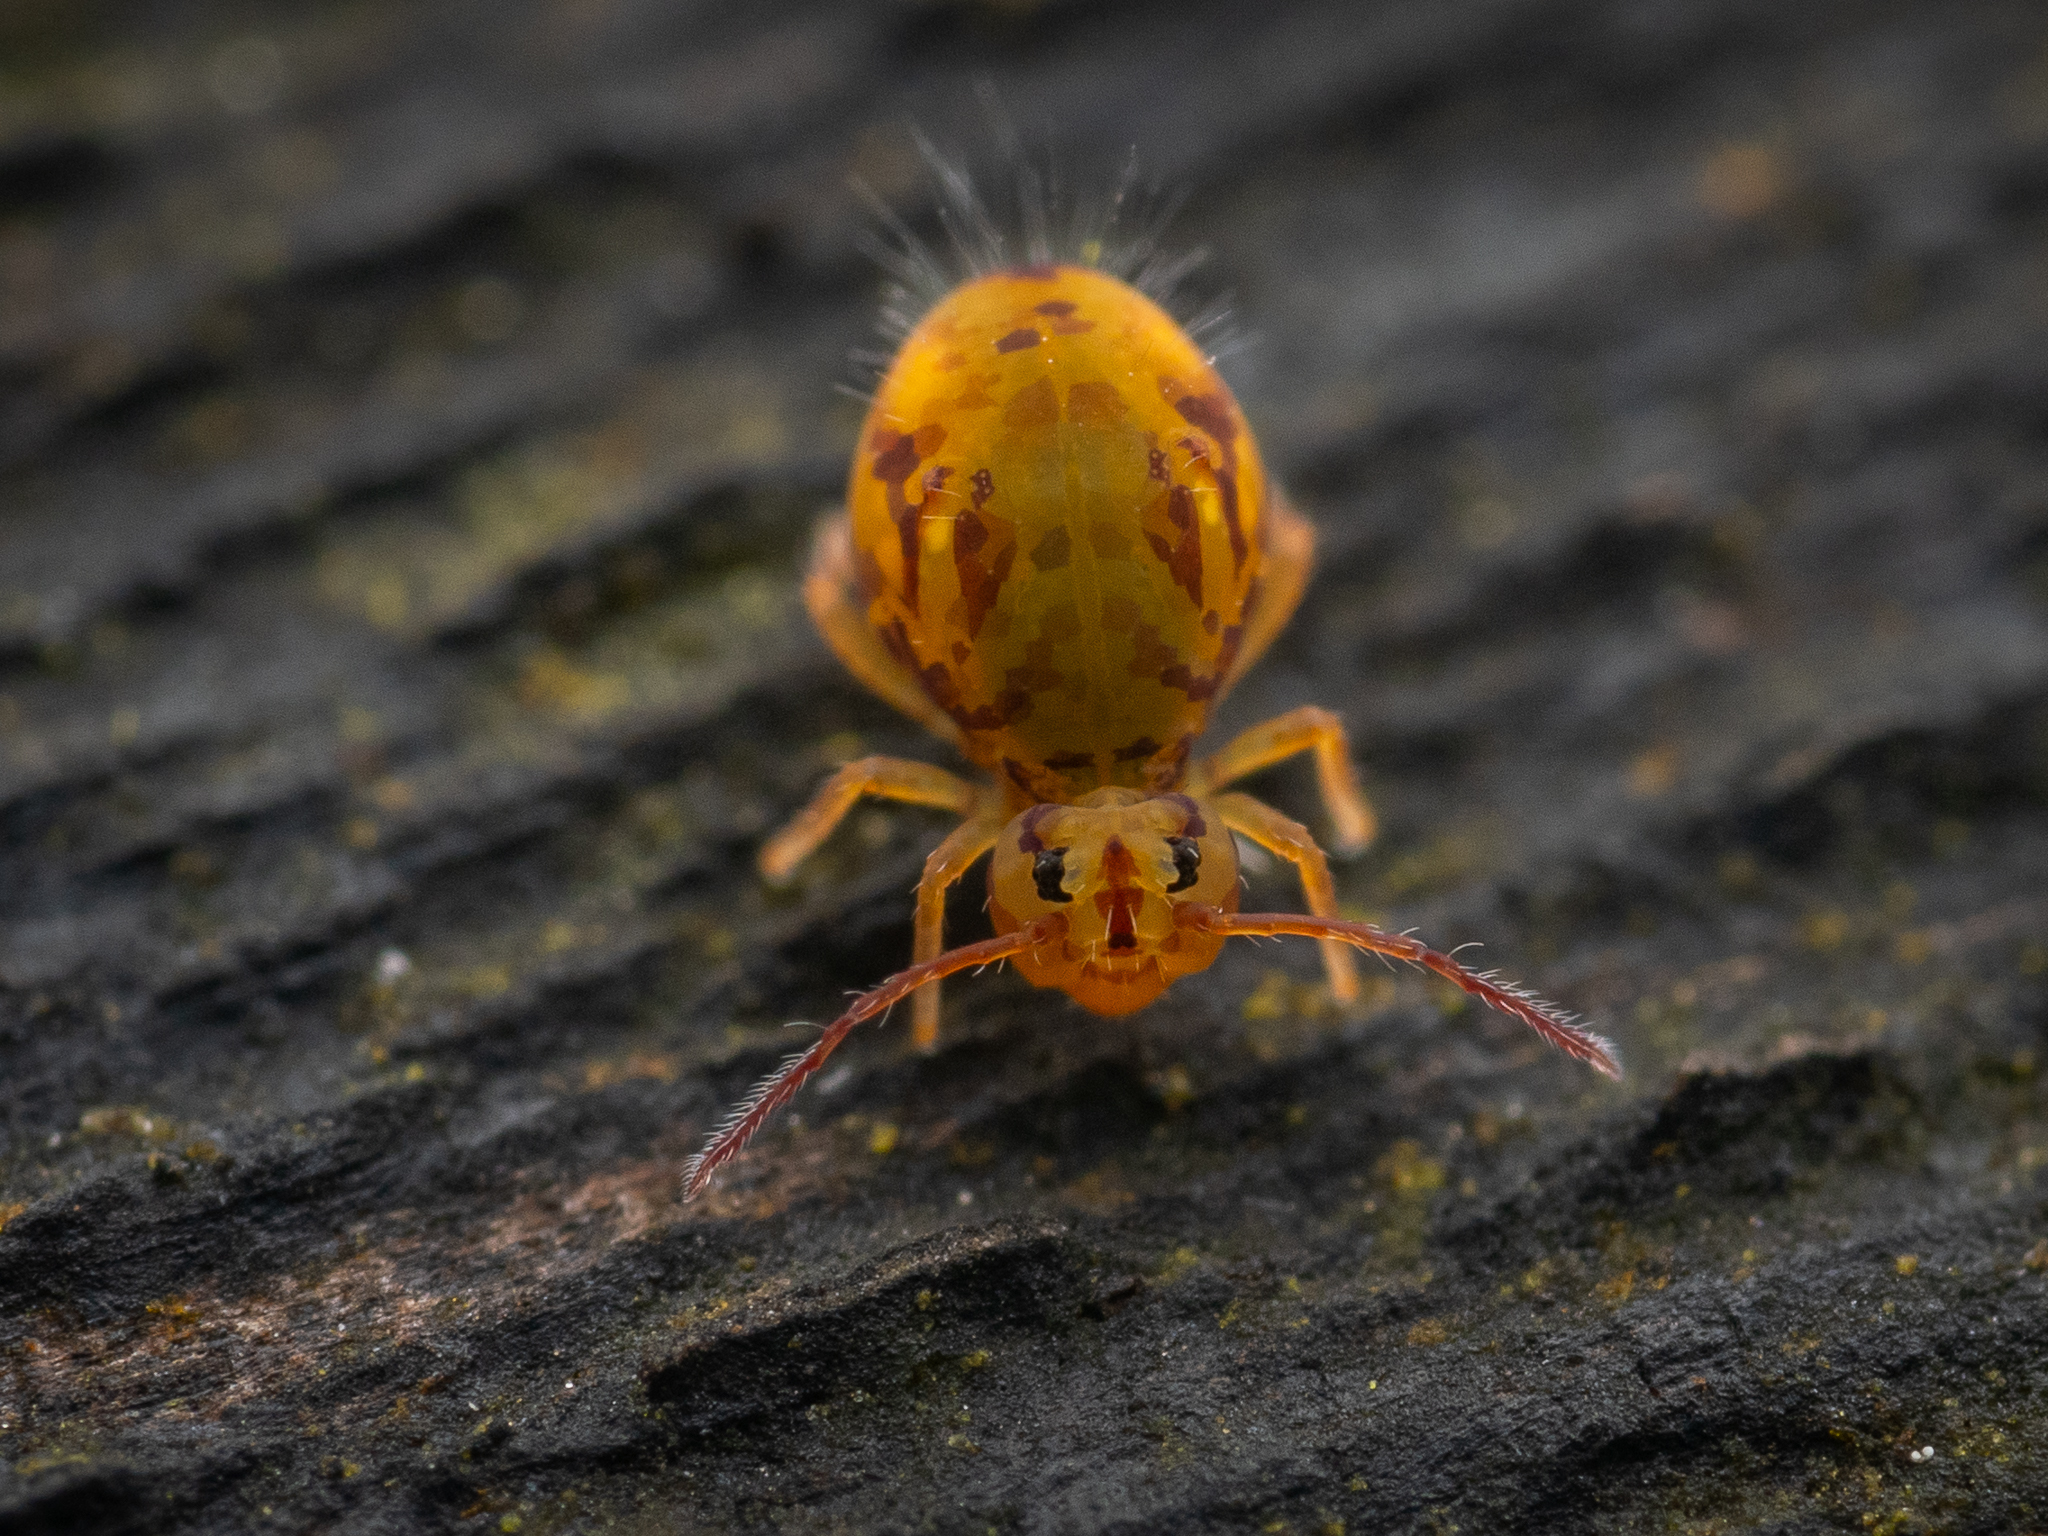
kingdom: Animalia
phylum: Arthropoda
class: Collembola
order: Symphypleona
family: Dicyrtomidae
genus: Dicyrtomina
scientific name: Dicyrtomina ornata
